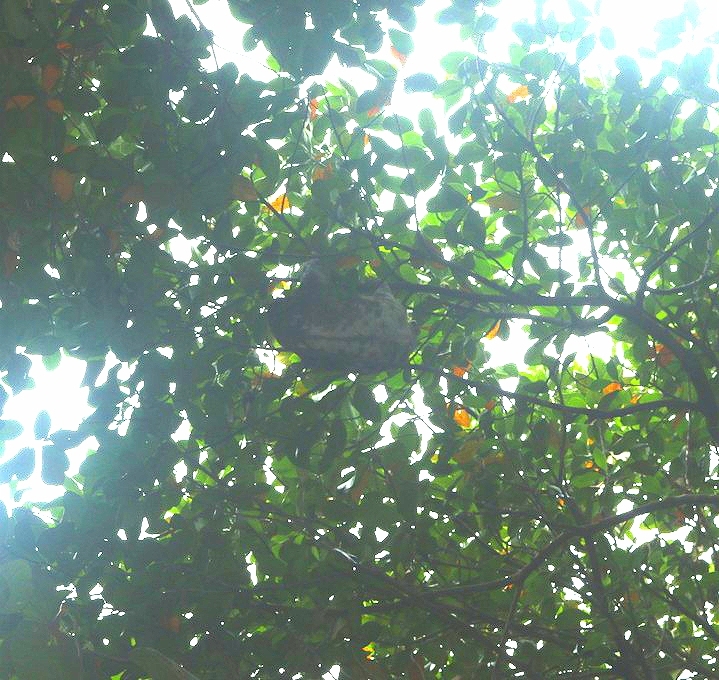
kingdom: Animalia
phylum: Chordata
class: Mammalia
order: Pilosa
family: Bradypodidae
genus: Bradypus
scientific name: Bradypus variegatus
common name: Brown-throated three-toed sloth
